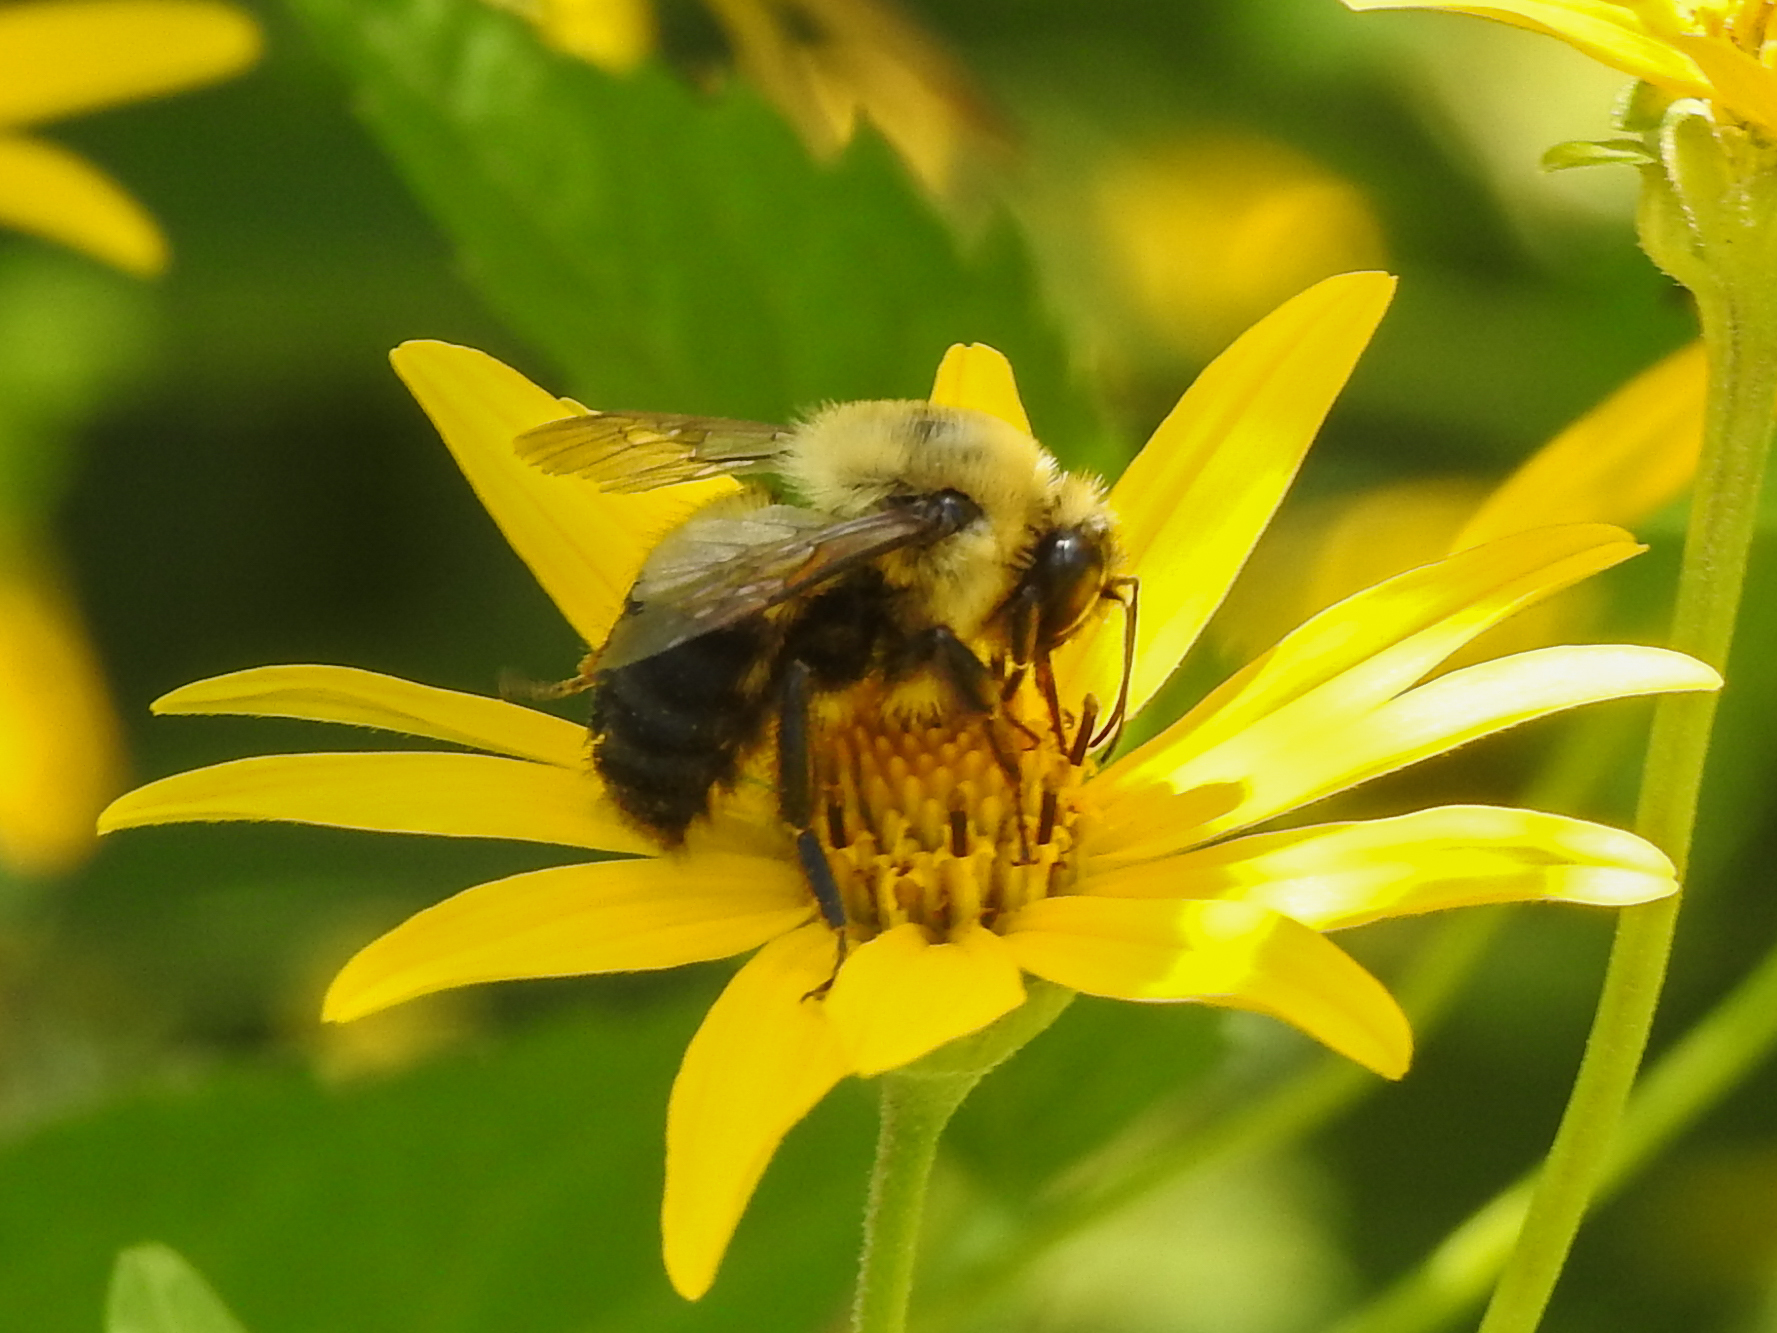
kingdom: Animalia
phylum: Arthropoda
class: Insecta
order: Hymenoptera
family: Apidae
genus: Bombus
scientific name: Bombus griseocollis
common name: Brown-belted bumble bee
